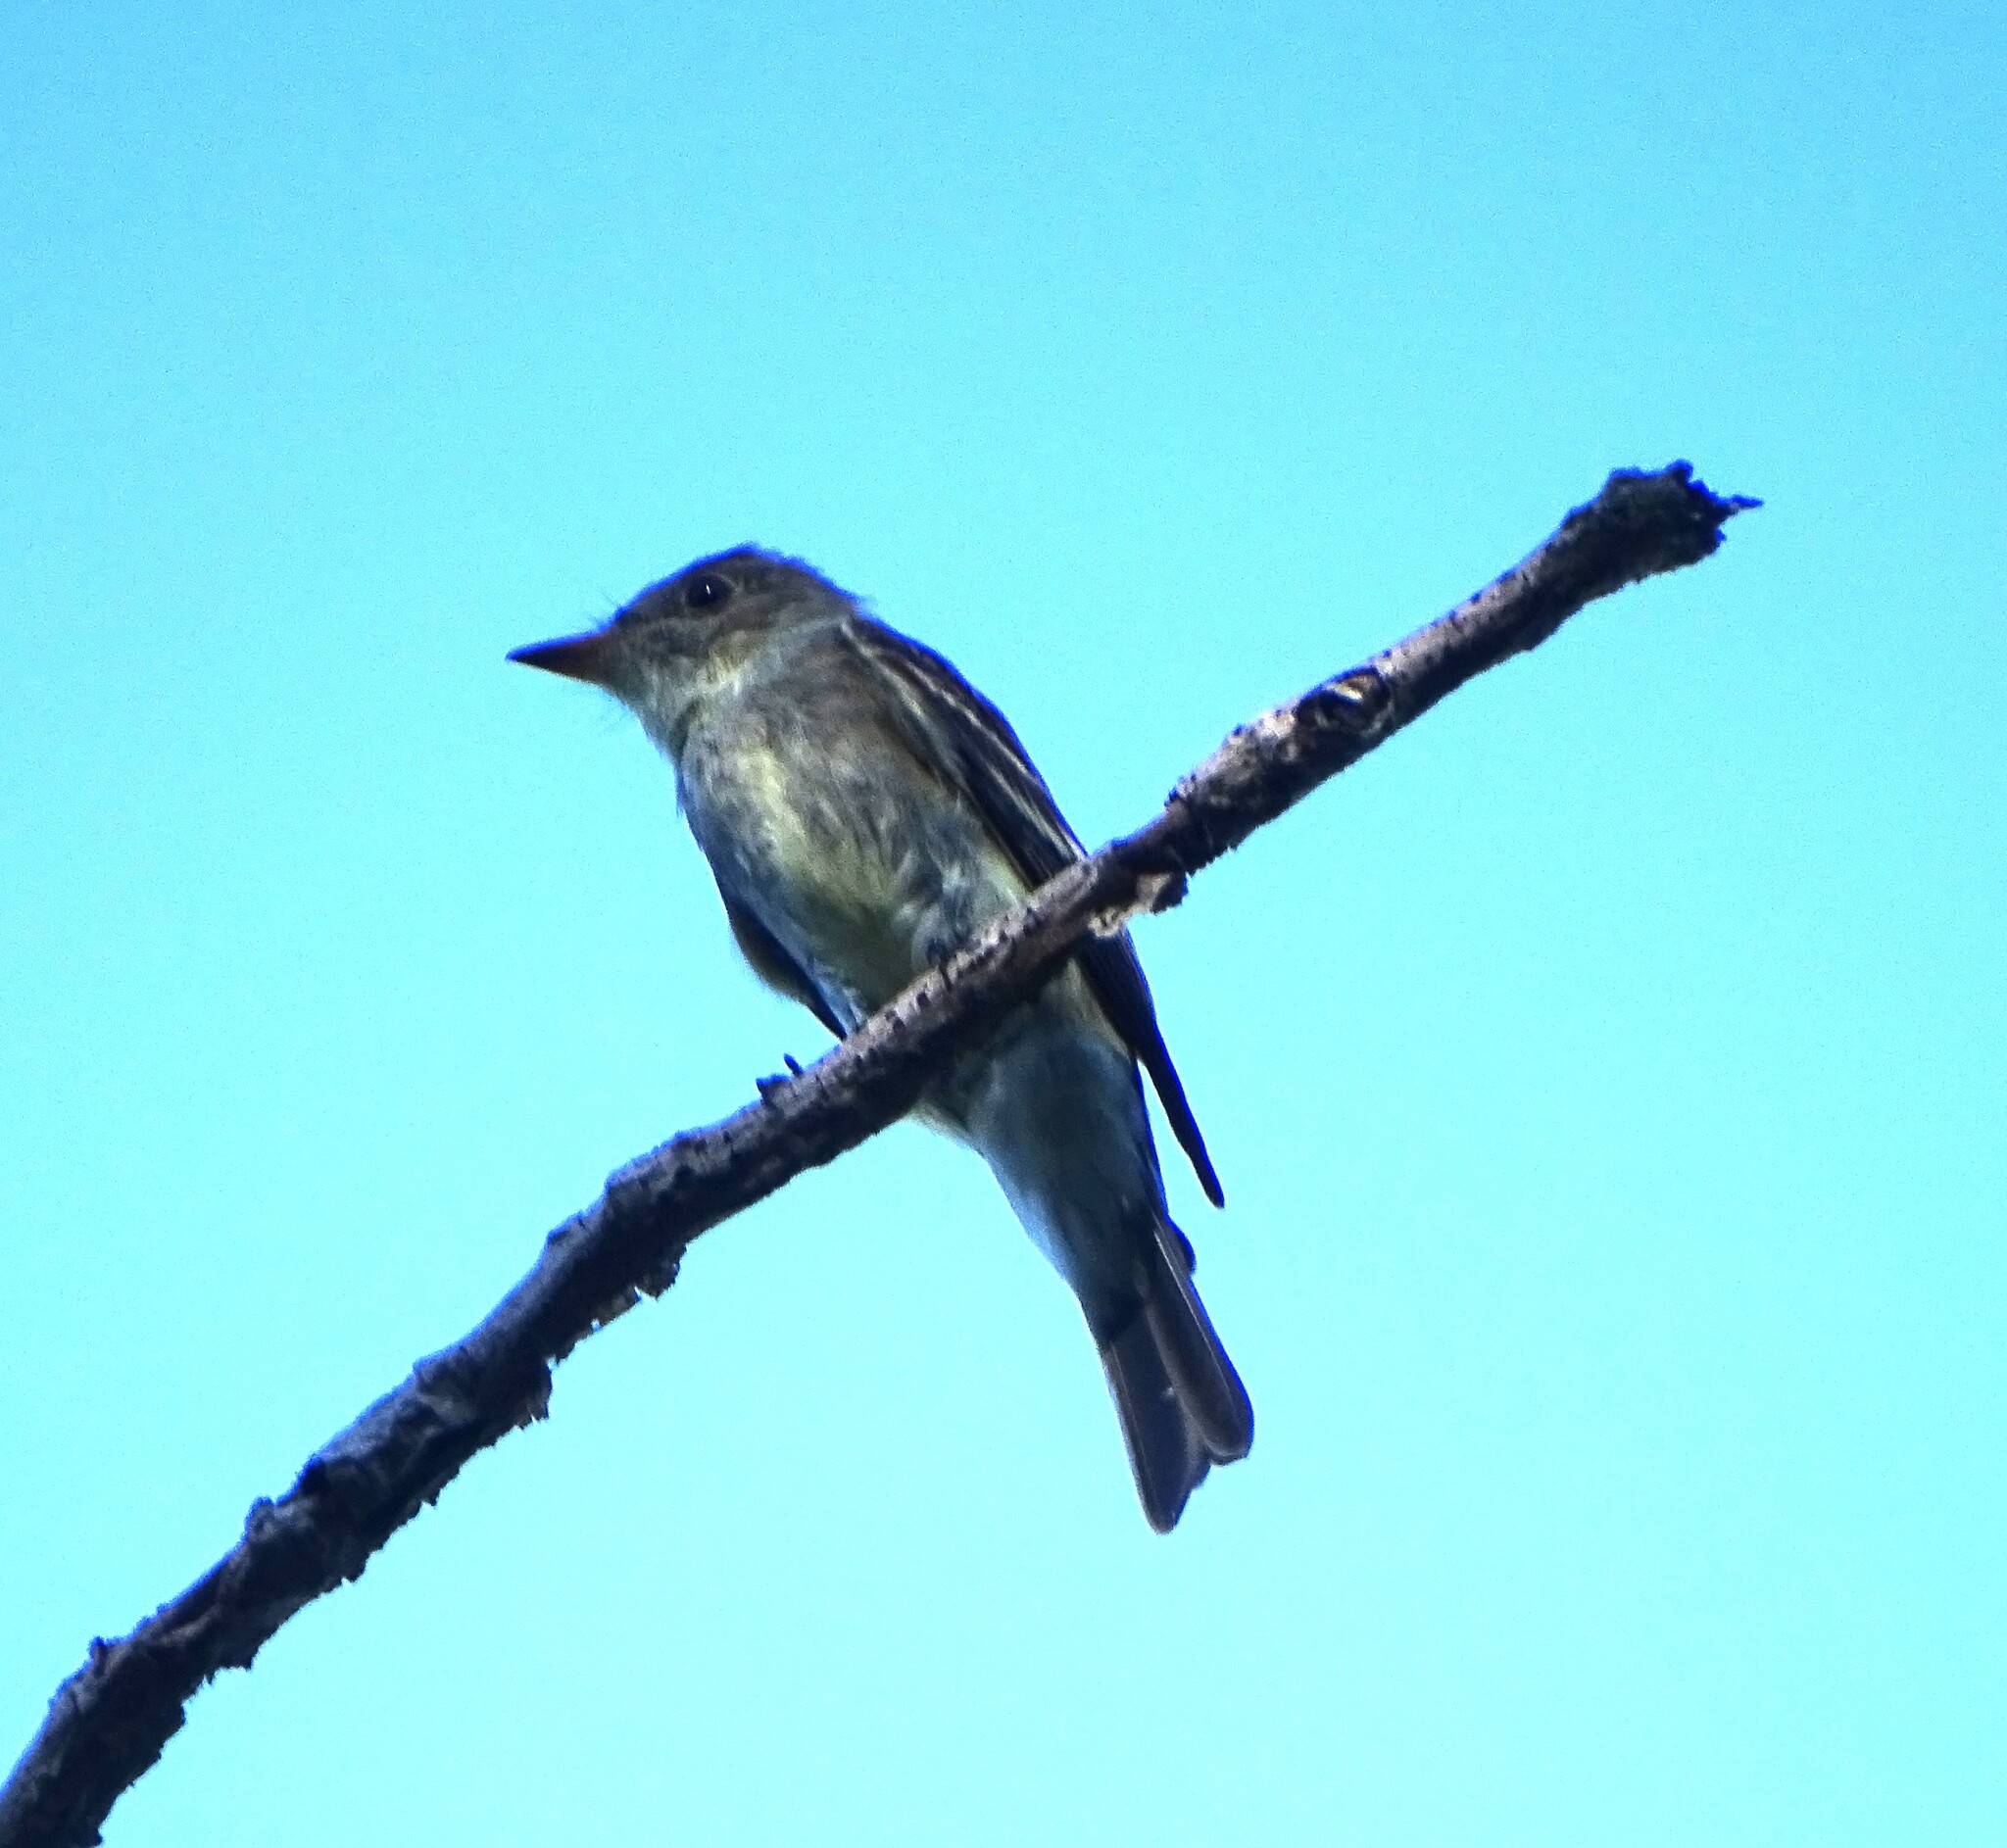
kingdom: Animalia
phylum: Chordata
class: Aves
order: Passeriformes
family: Tyrannidae
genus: Contopus
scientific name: Contopus virens
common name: Eastern wood-pewee
